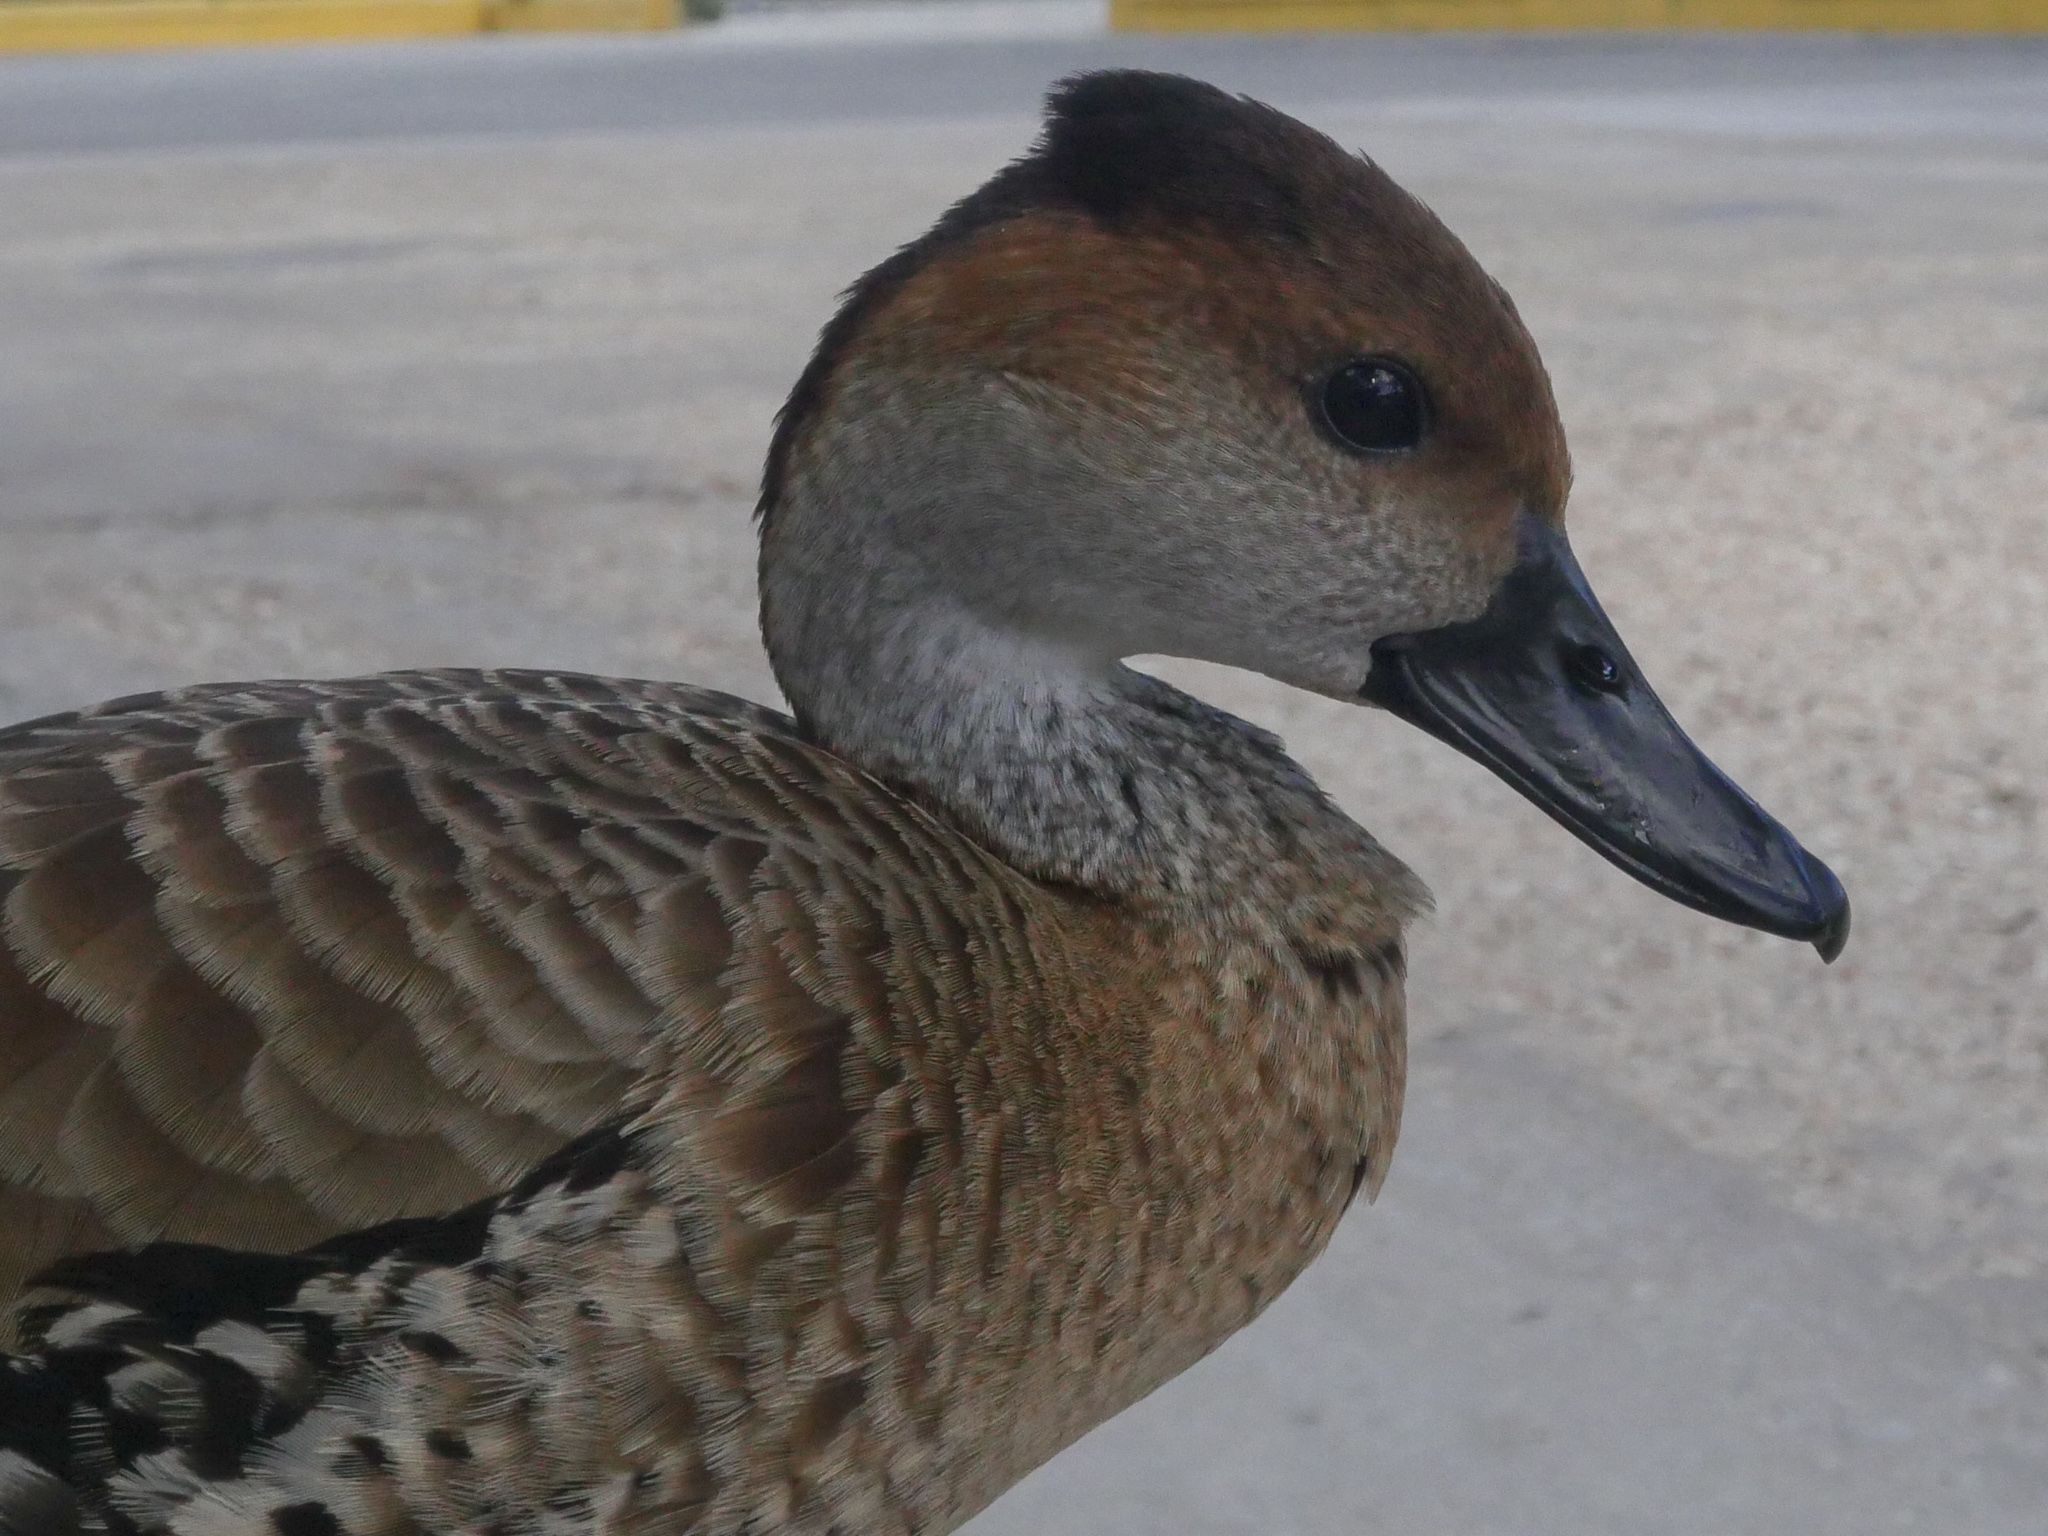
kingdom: Animalia
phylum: Chordata
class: Aves
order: Anseriformes
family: Anatidae
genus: Dendrocygna
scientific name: Dendrocygna arborea
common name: West indian whistling duck
